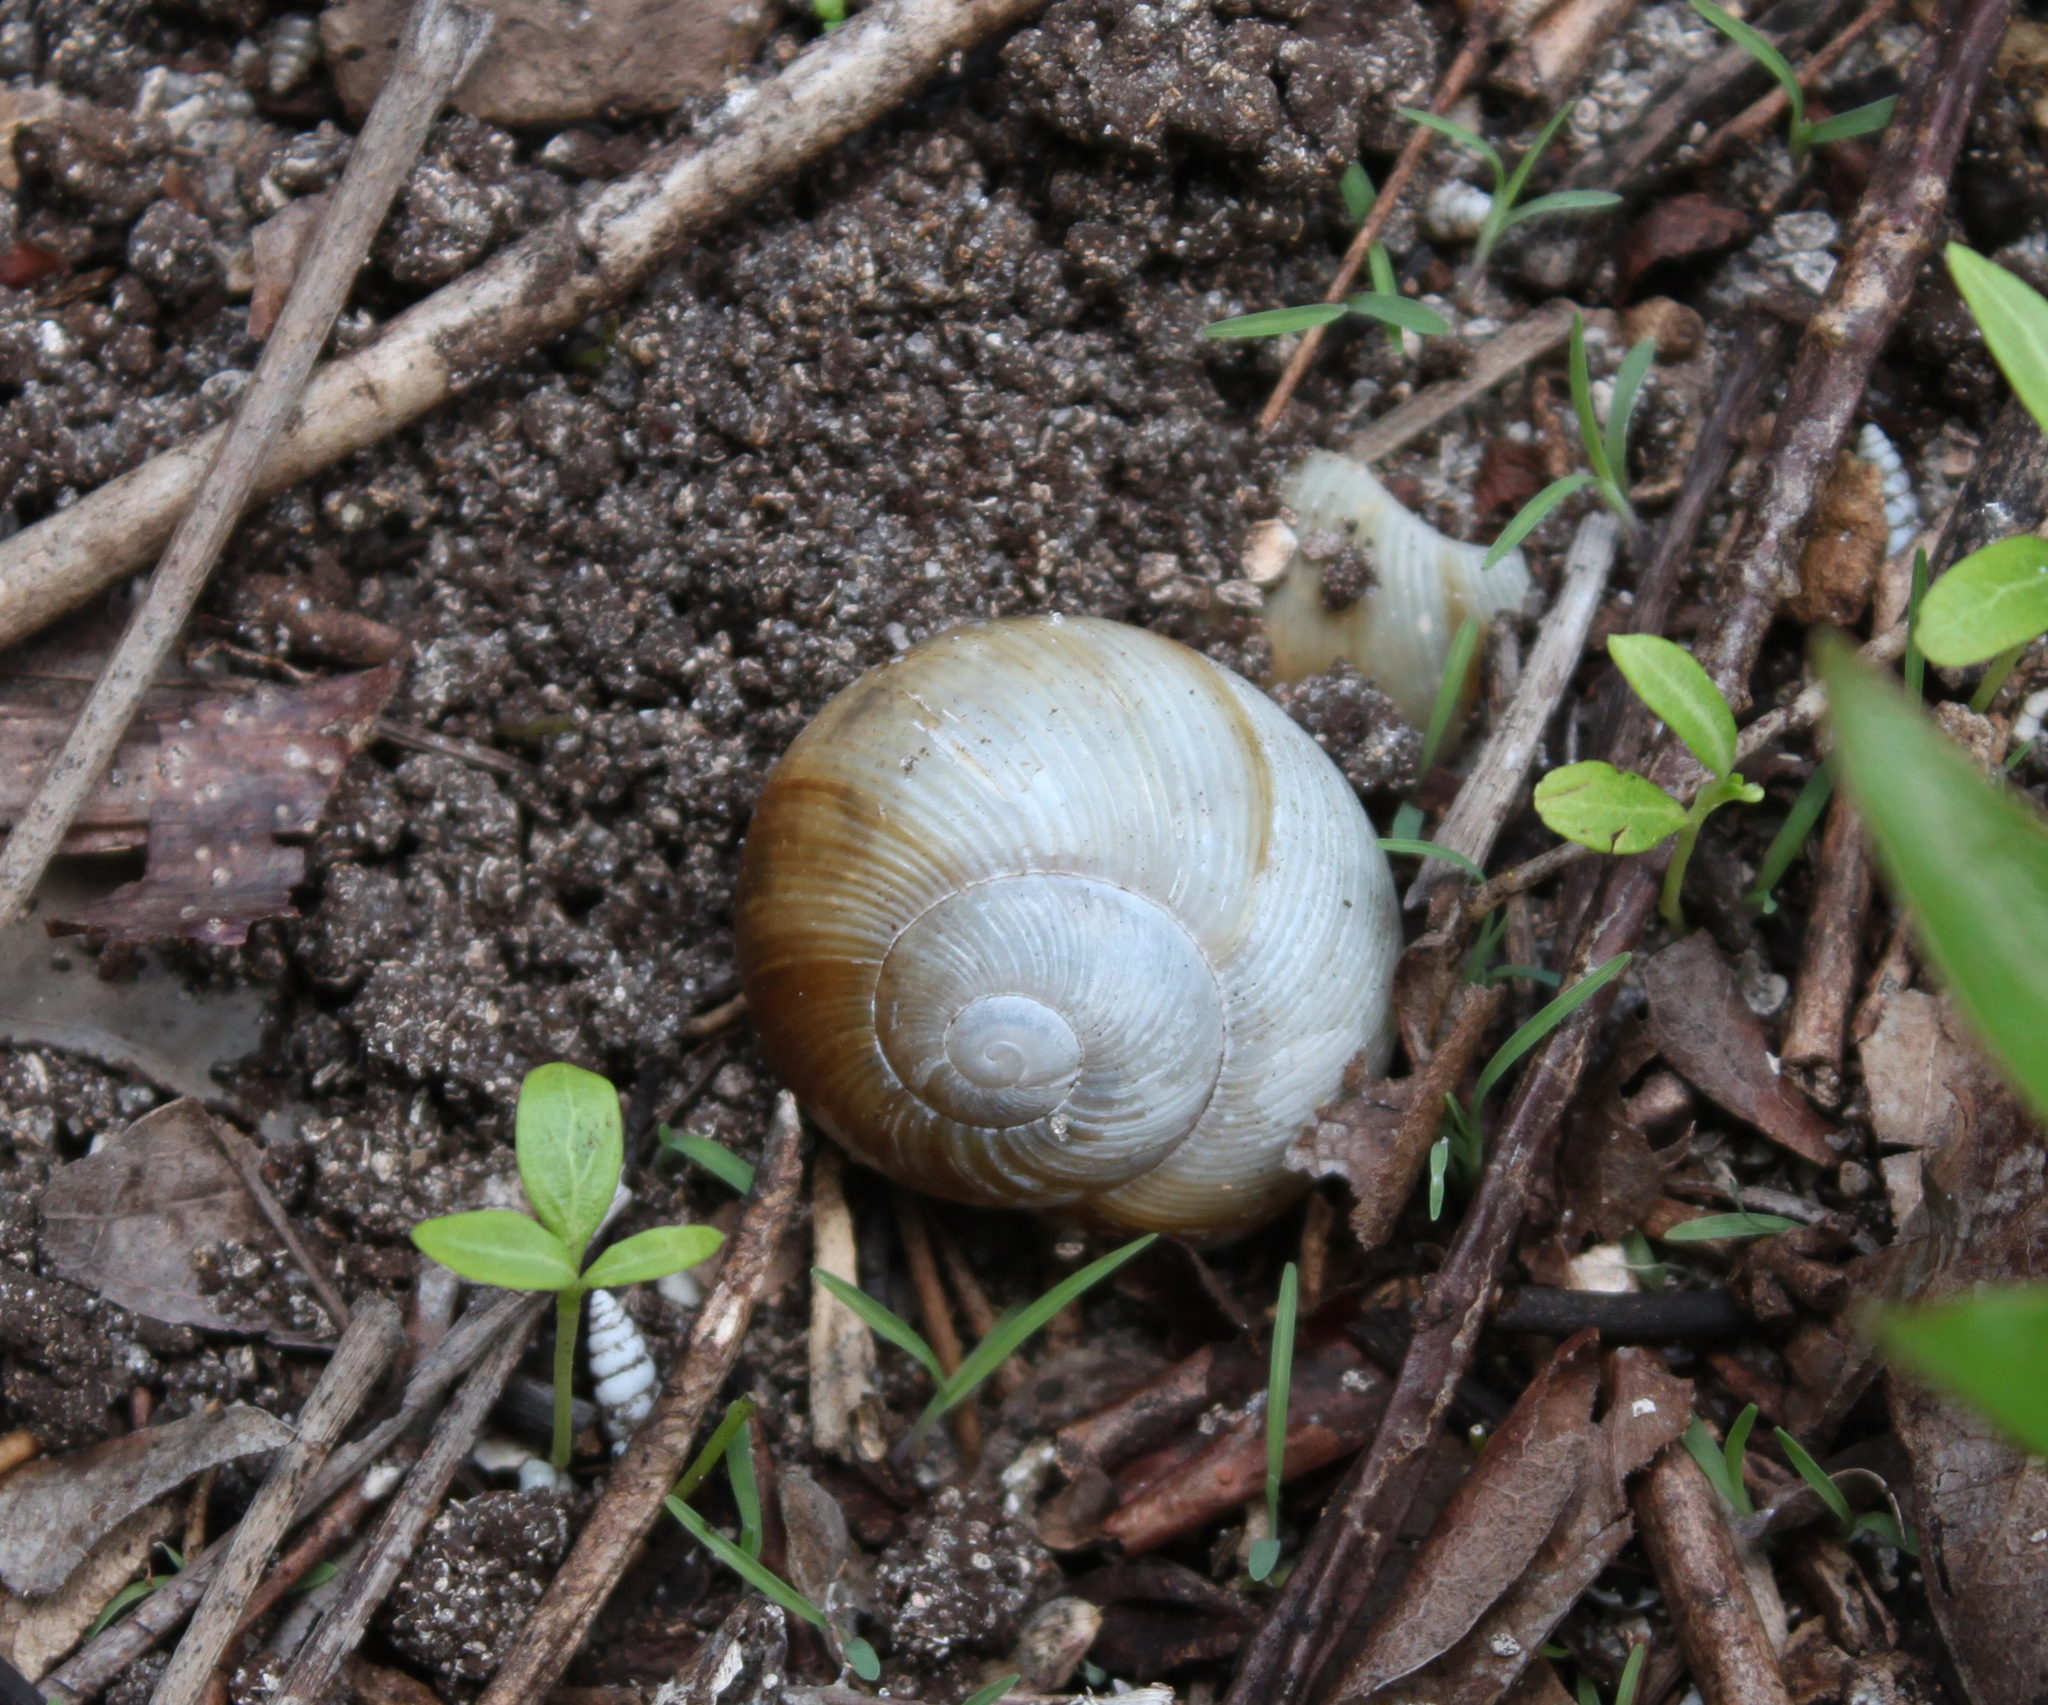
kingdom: Animalia
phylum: Mollusca
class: Gastropoda
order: Stylommatophora
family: Zachrysiidae
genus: Zachrysia
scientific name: Zachrysia provisoria
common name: Garden zachrysia
